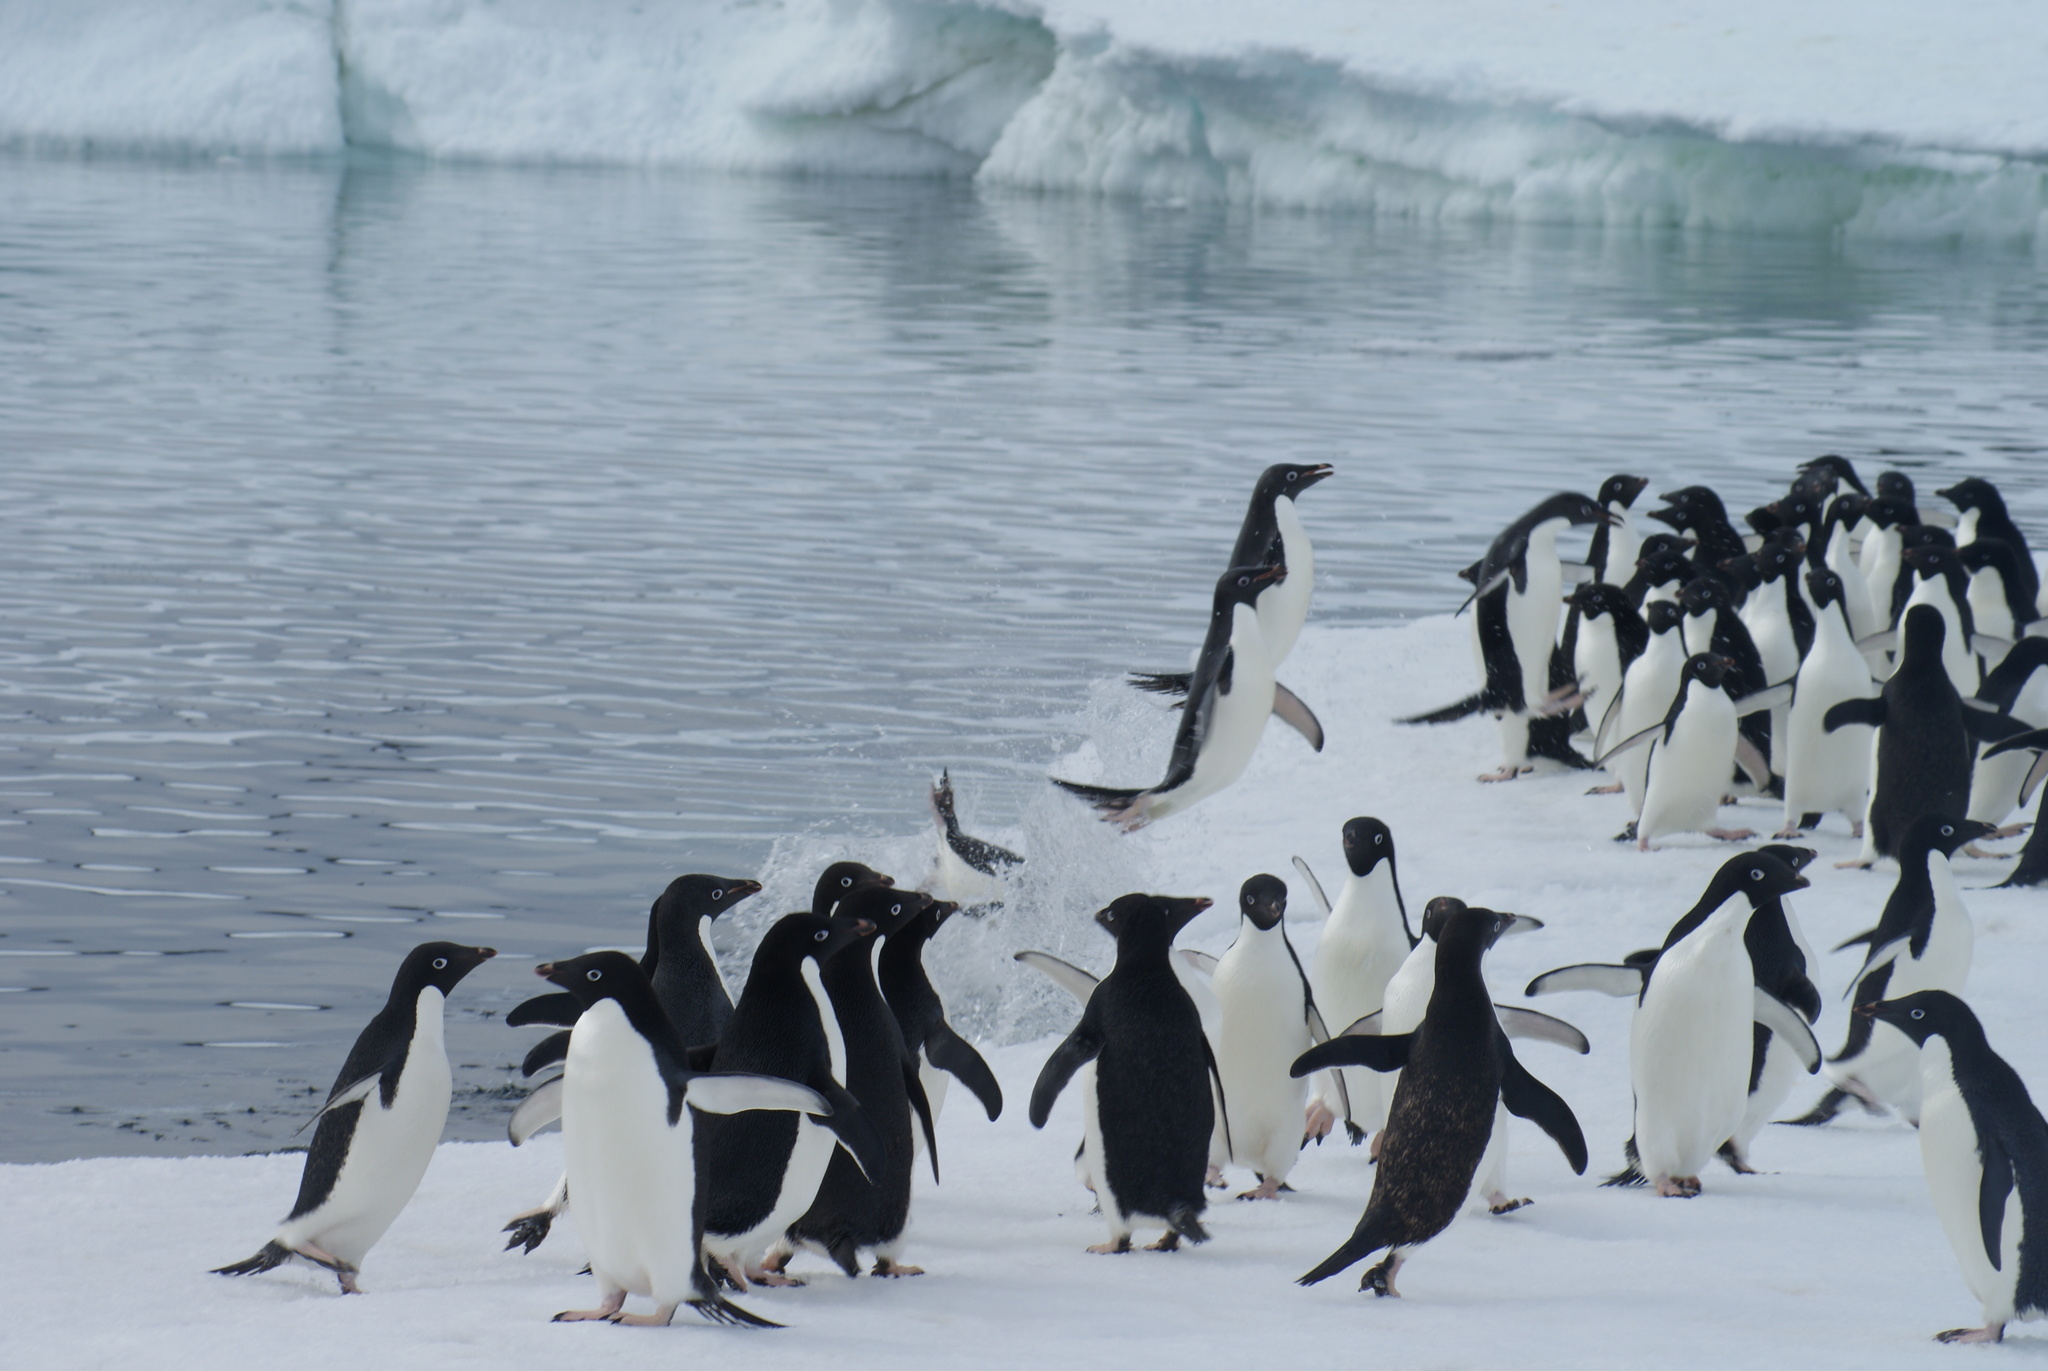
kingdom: Animalia
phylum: Chordata
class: Aves
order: Sphenisciformes
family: Spheniscidae
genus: Pygoscelis
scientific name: Pygoscelis adeliae
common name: Adelie penguin
